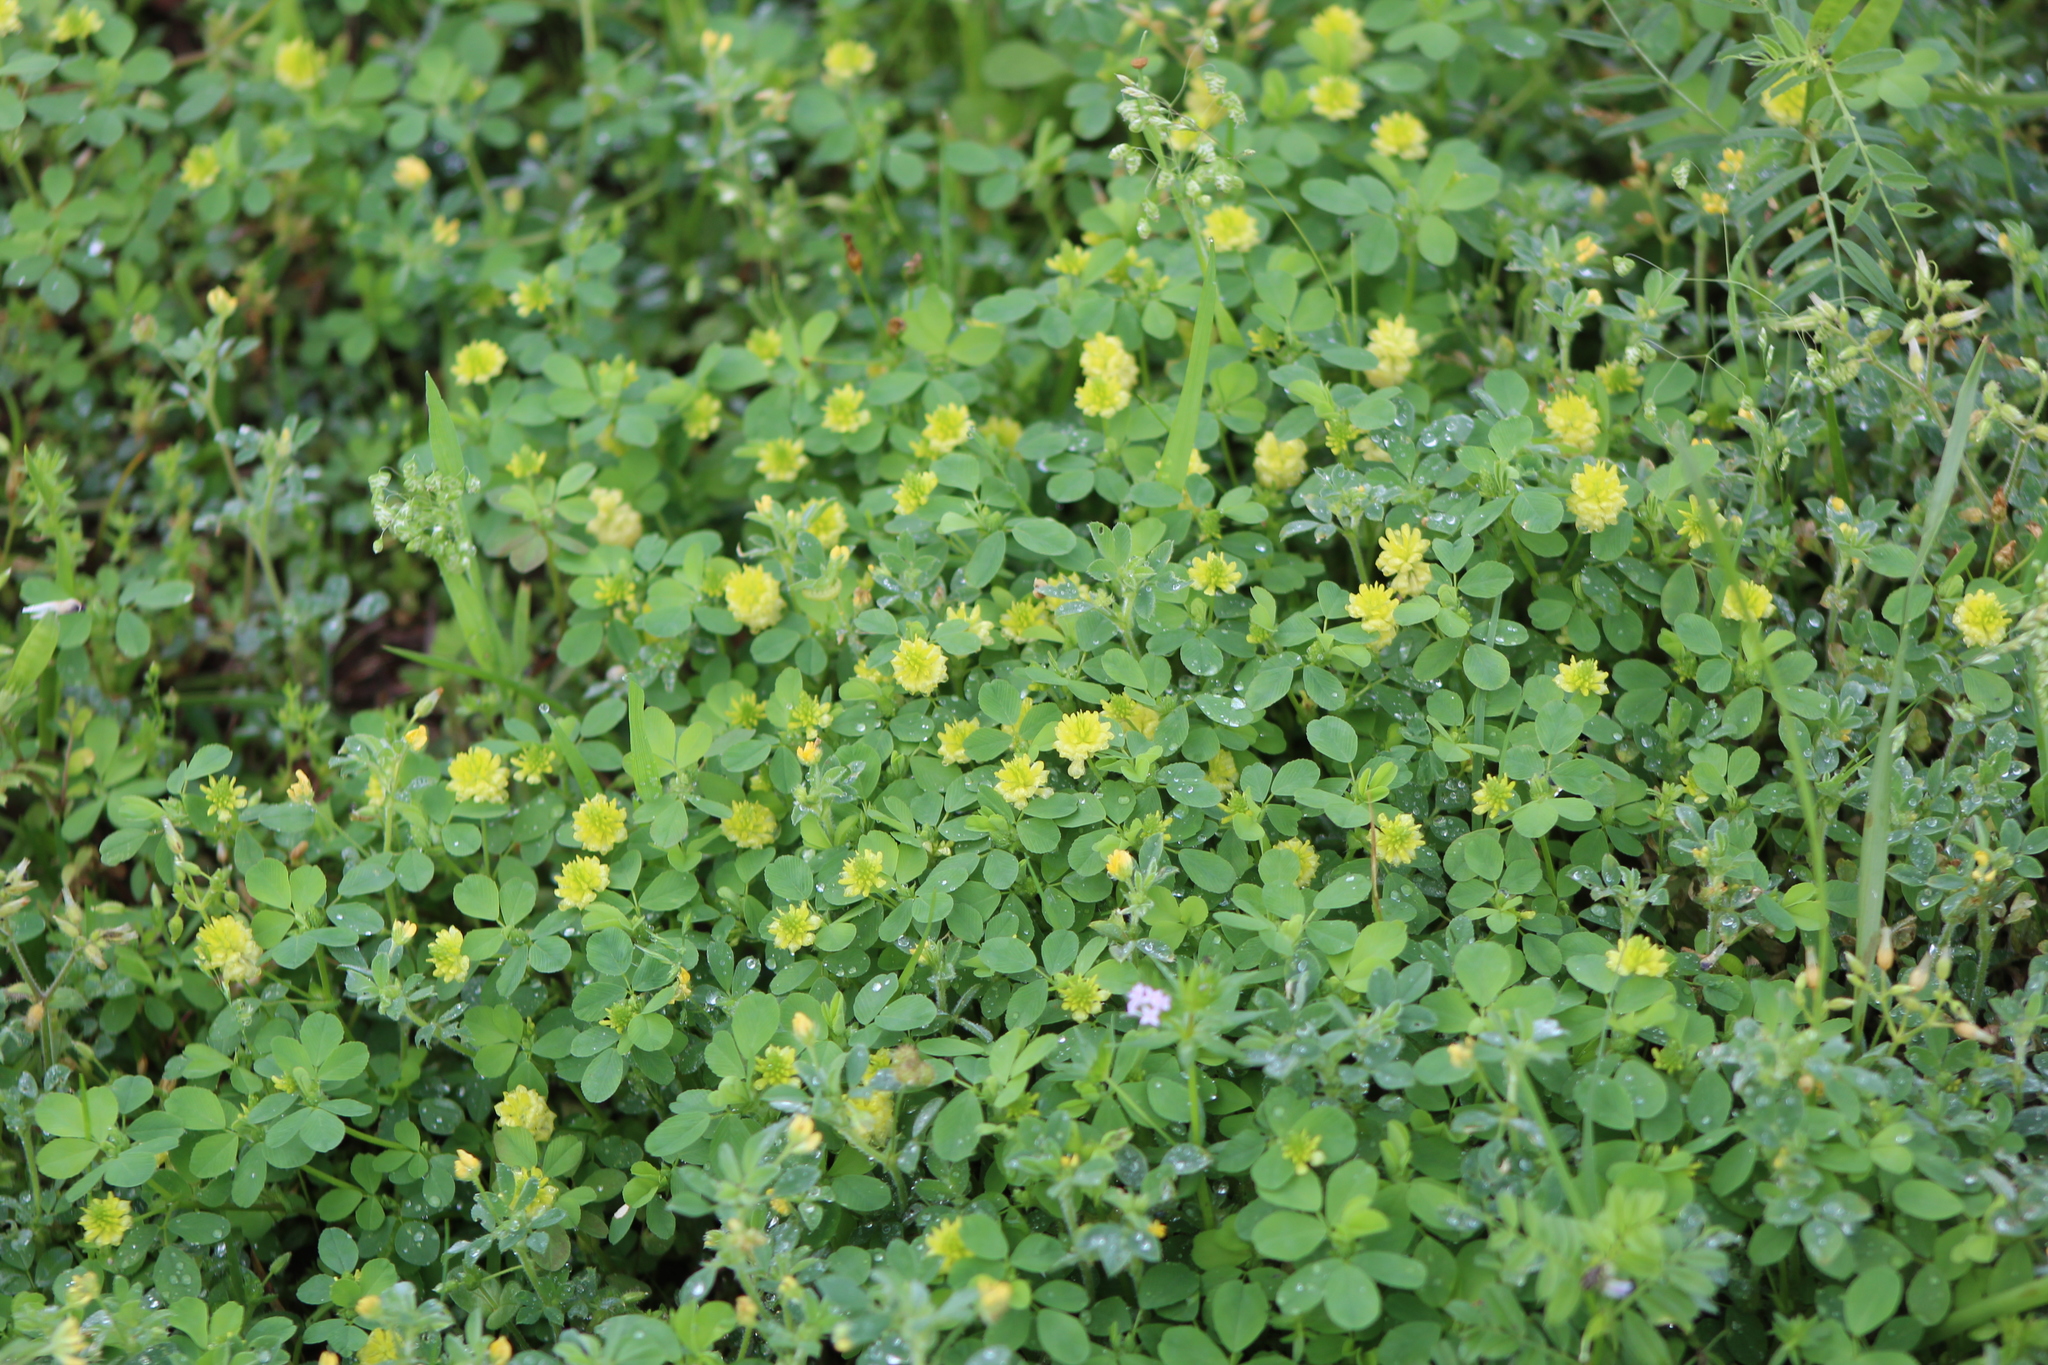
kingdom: Plantae
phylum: Tracheophyta
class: Magnoliopsida
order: Fabales
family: Fabaceae
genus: Trifolium
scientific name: Trifolium campestre
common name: Field clover
